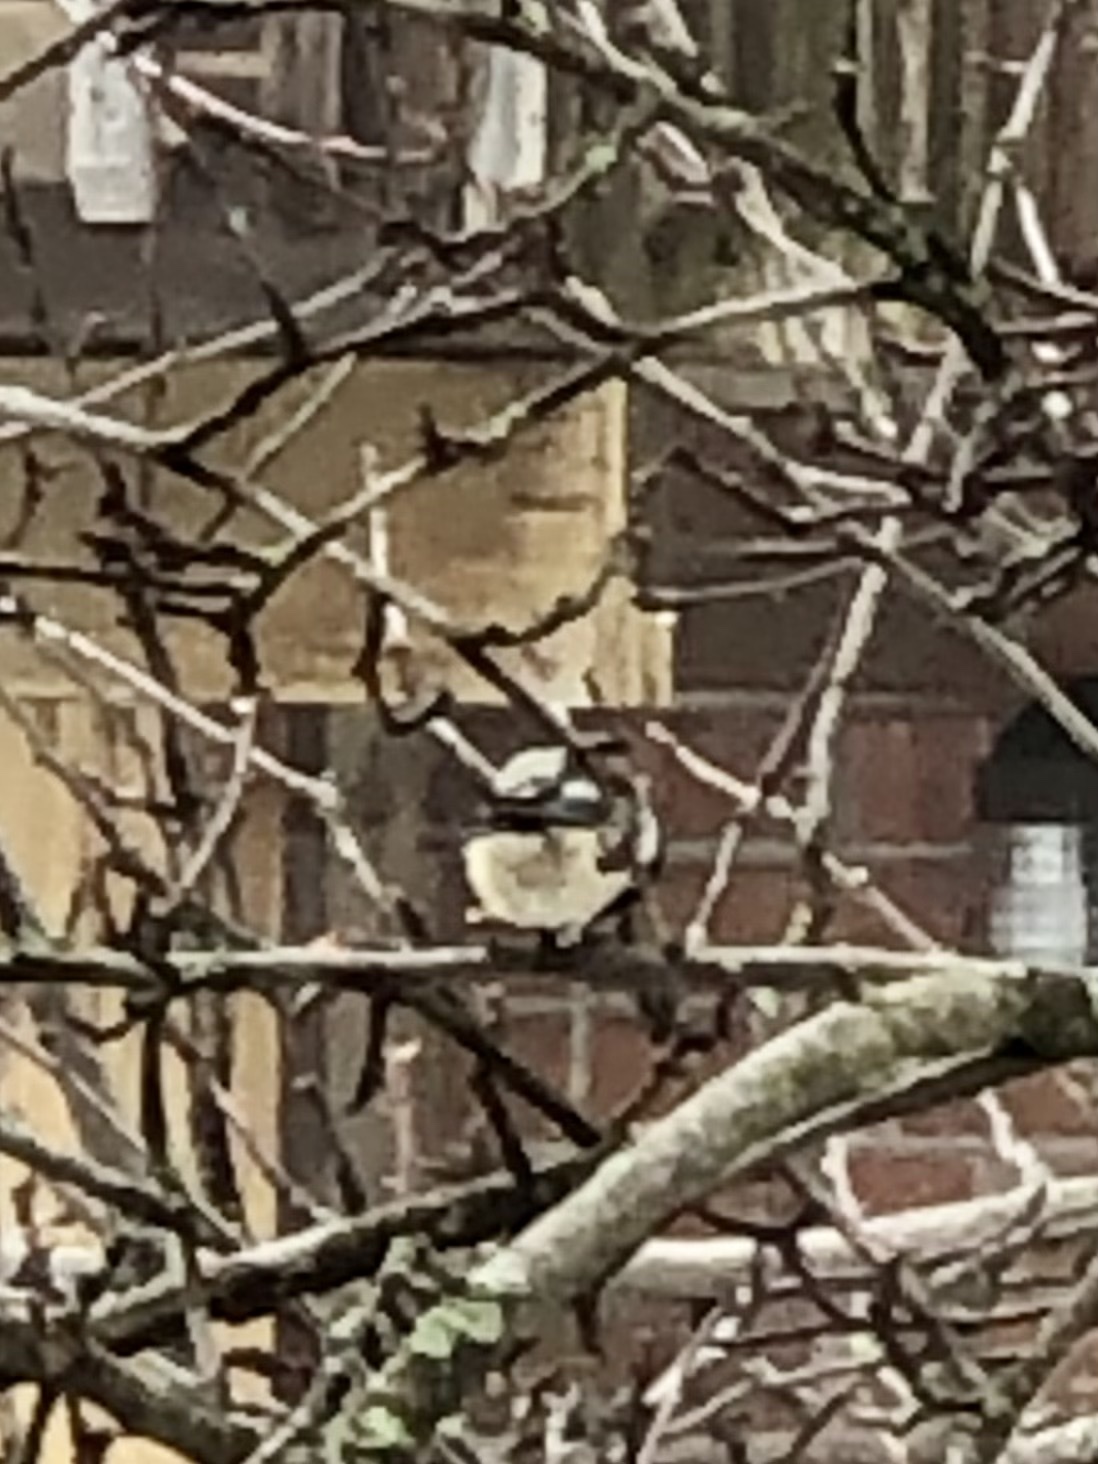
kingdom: Animalia
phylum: Chordata
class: Aves
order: Passeriformes
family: Paridae
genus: Poecile
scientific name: Poecile atricapillus
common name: Black-capped chickadee
